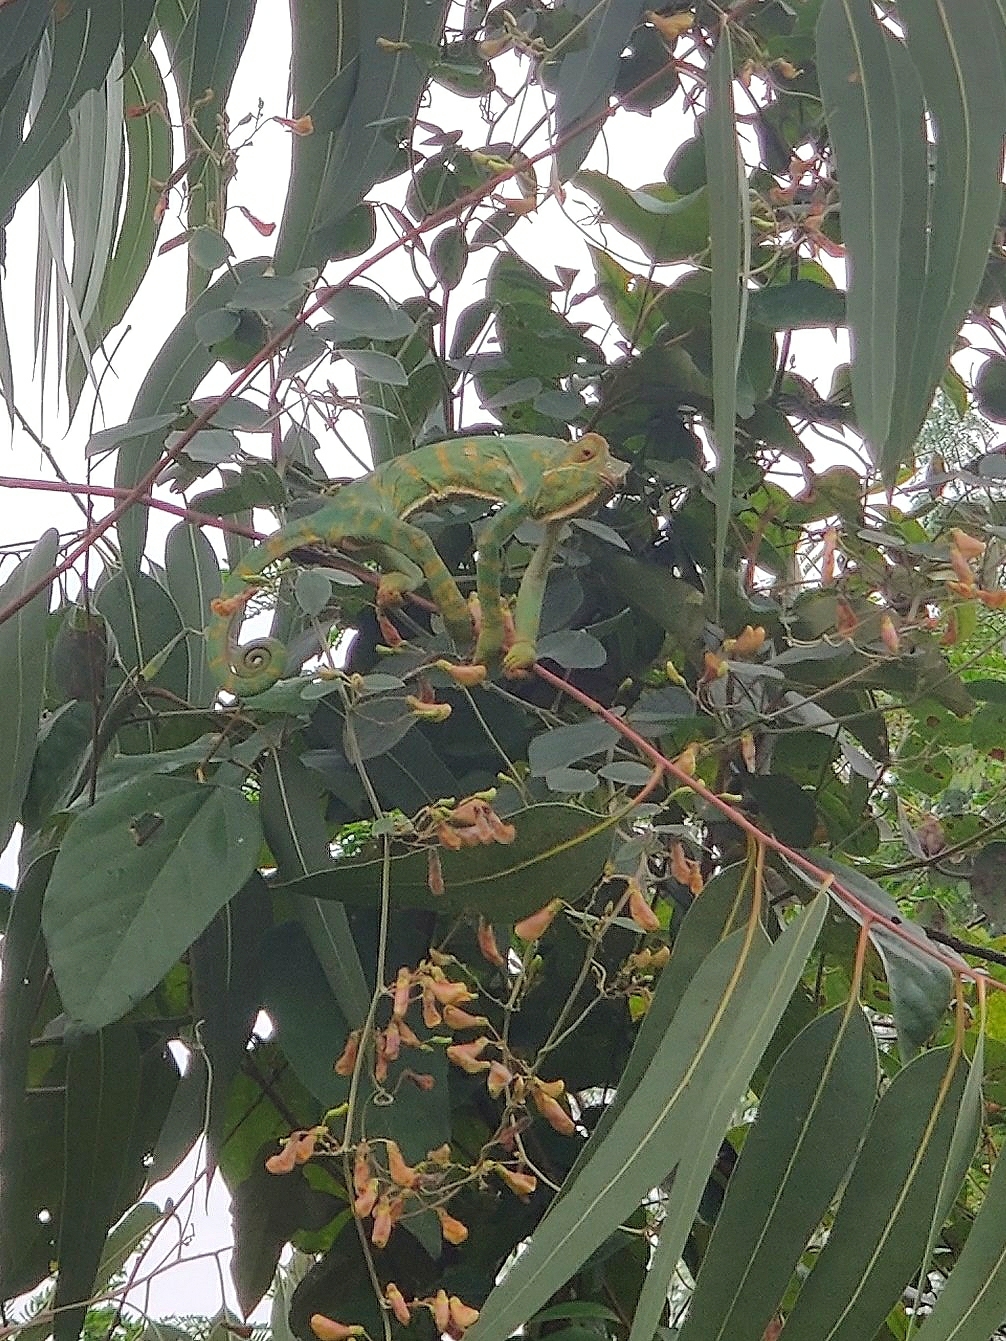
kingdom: Animalia
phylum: Chordata
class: Squamata
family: Chamaeleonidae
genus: Chamaeleo
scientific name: Chamaeleo zeylanicus
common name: Indian chameleon
